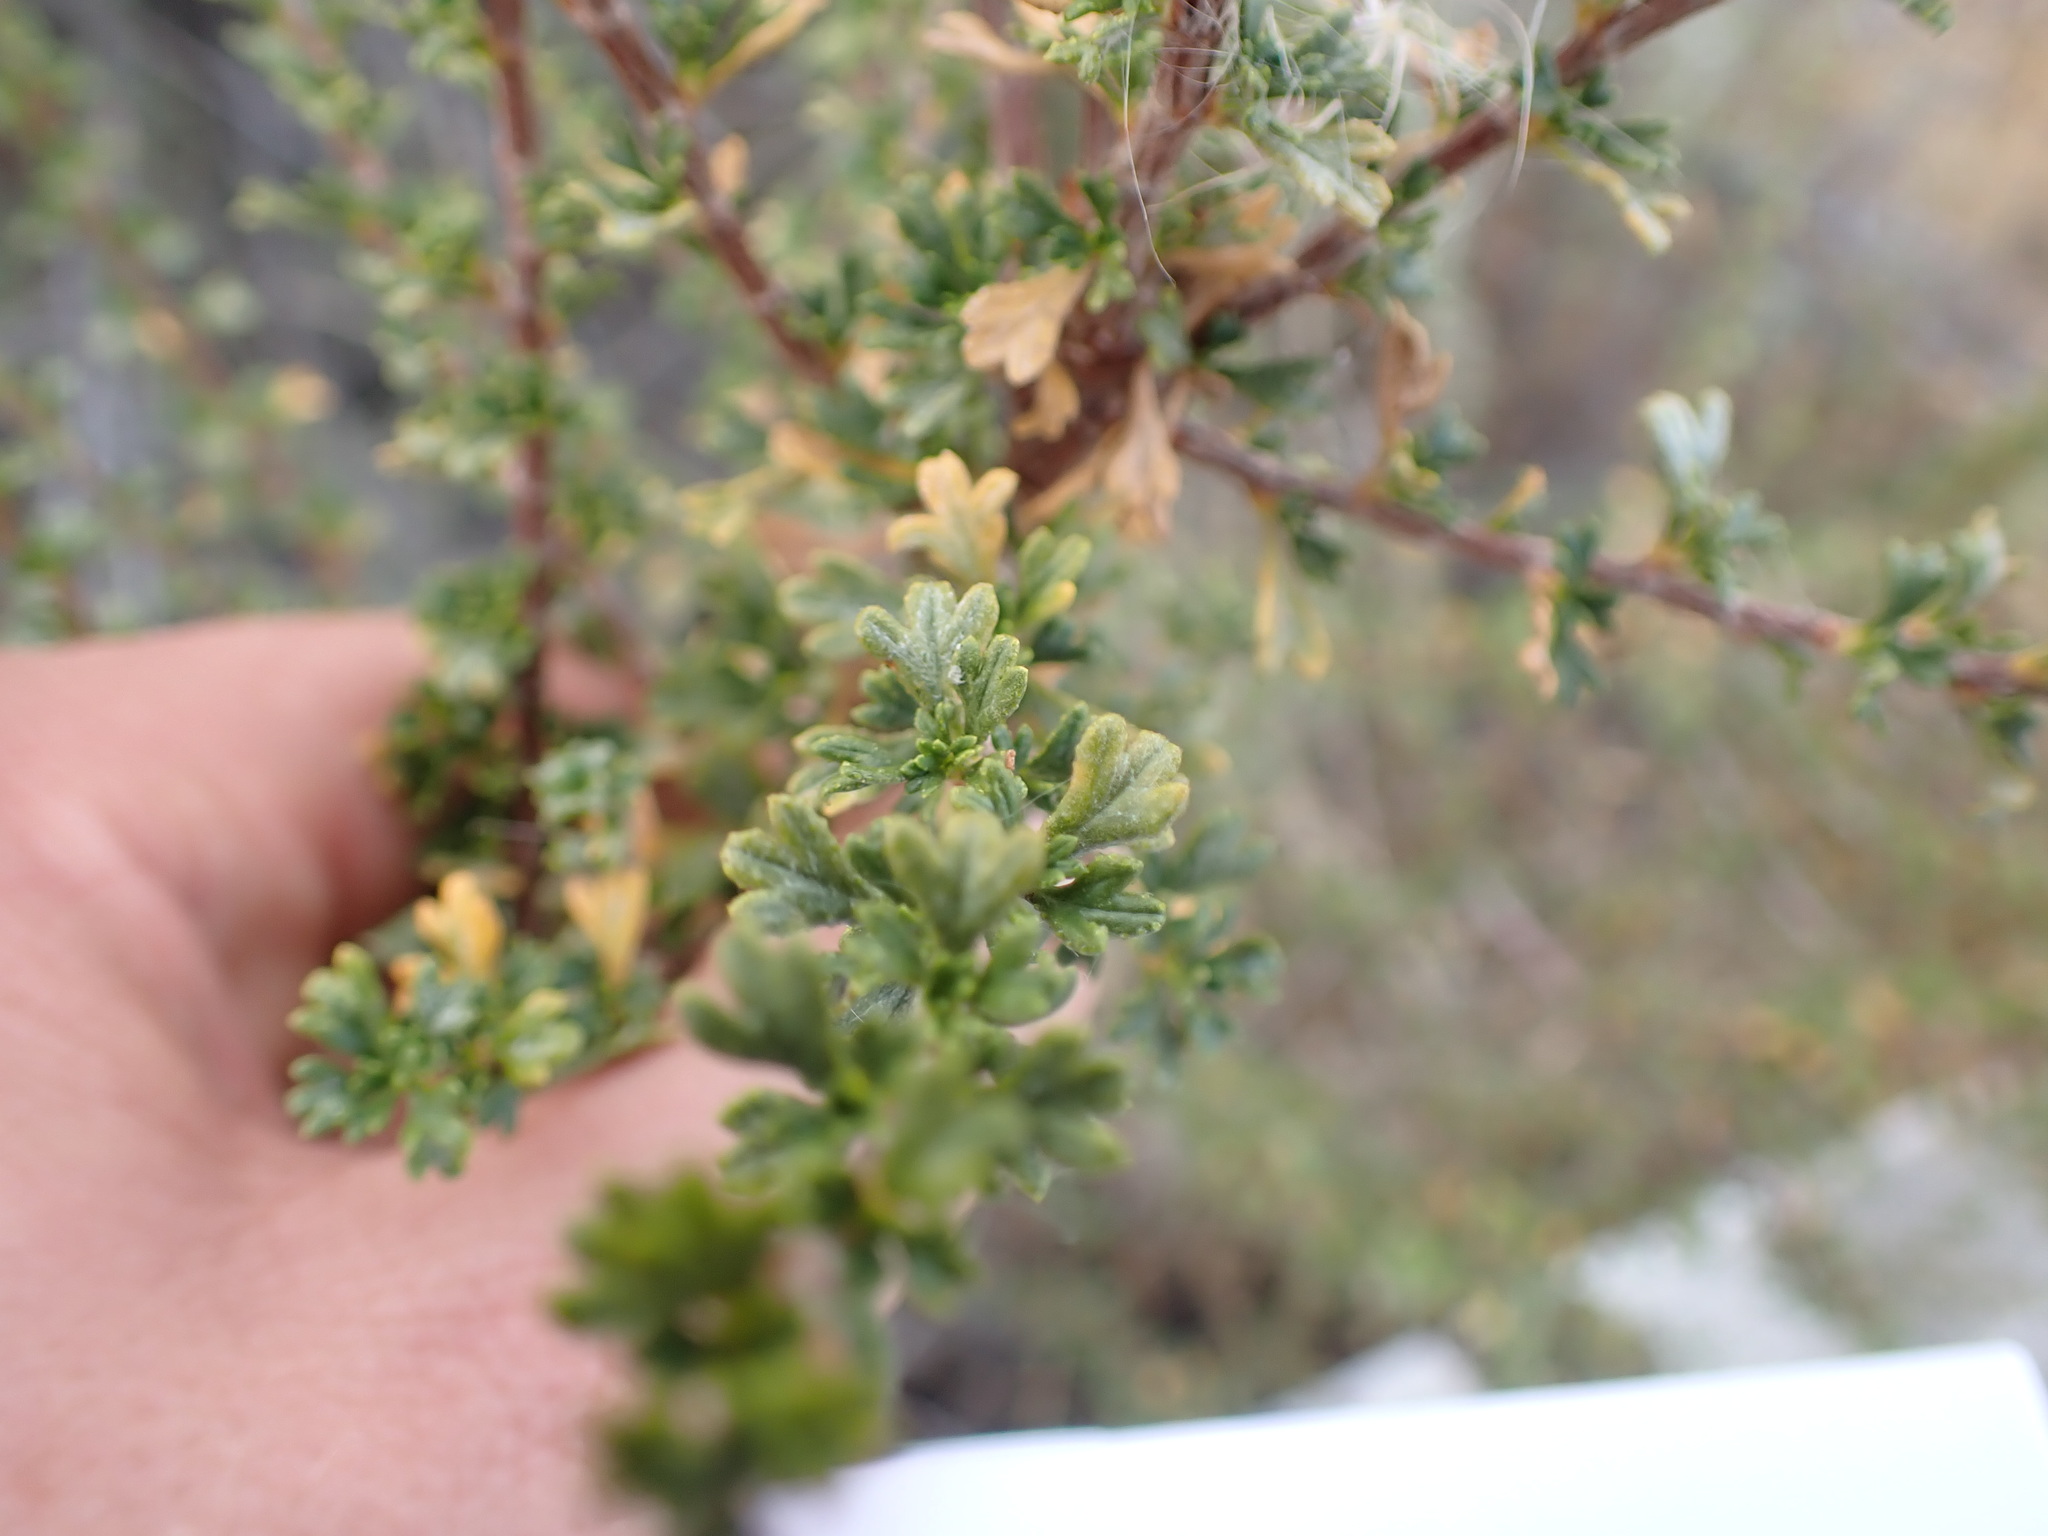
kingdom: Plantae
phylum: Tracheophyta
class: Magnoliopsida
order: Rosales
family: Rosaceae
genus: Purshia
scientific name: Purshia tridentata
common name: Antelope bitterbrush
